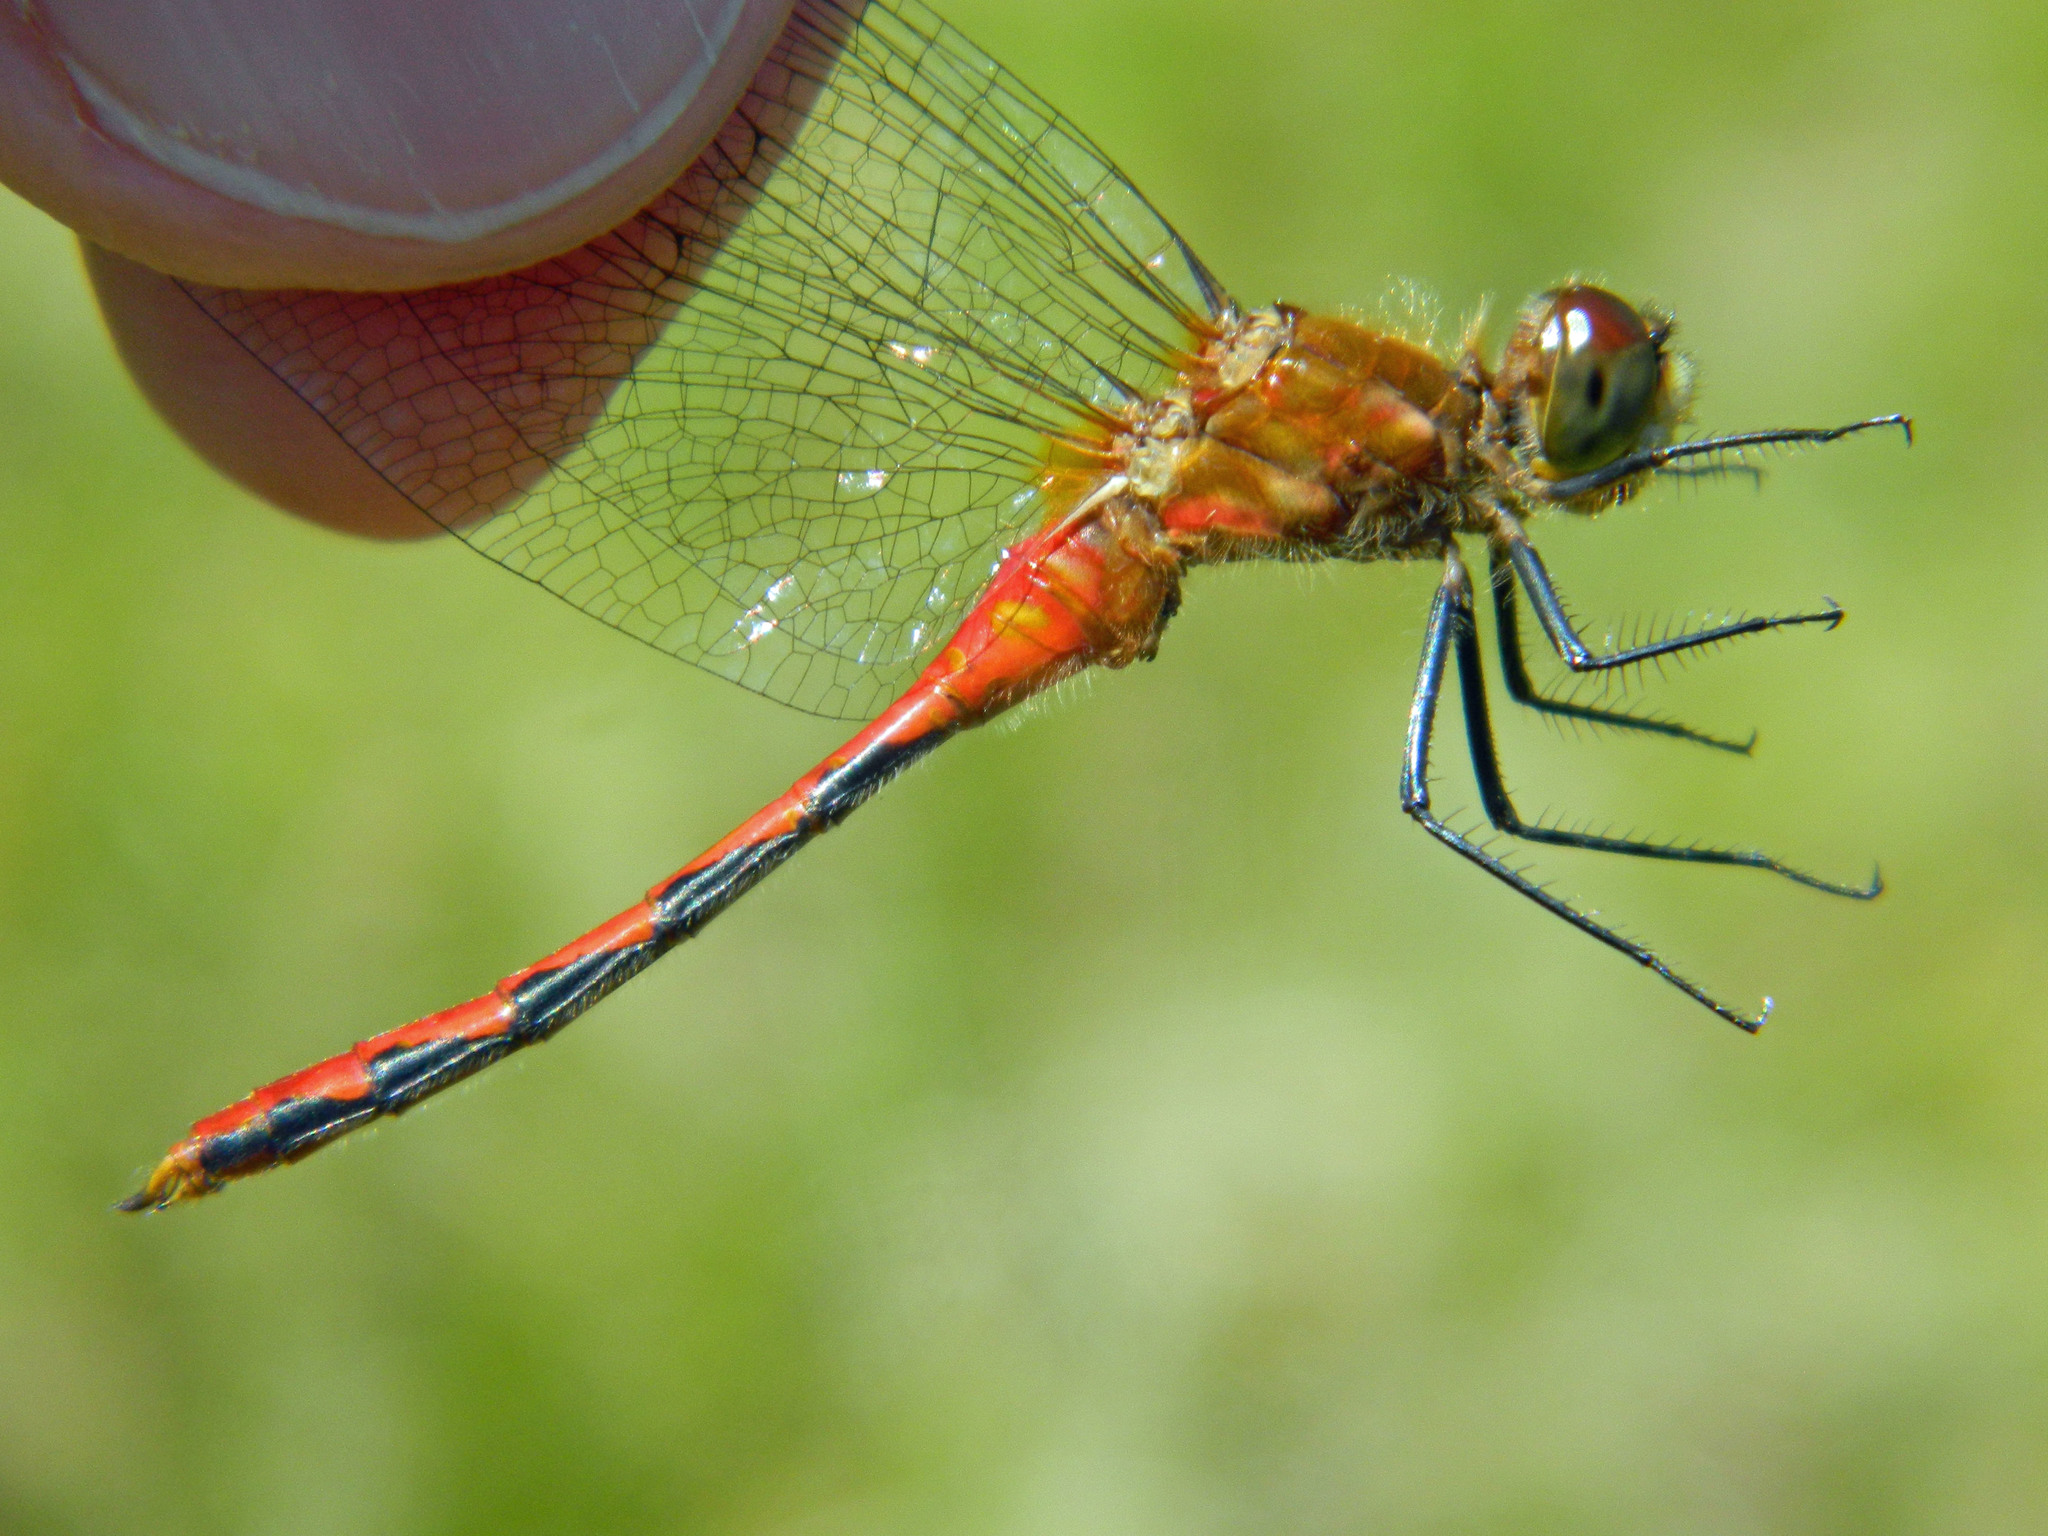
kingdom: Animalia
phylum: Arthropoda
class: Insecta
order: Odonata
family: Libellulidae
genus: Sympetrum
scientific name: Sympetrum obtrusum
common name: White-faced meadowhawk
